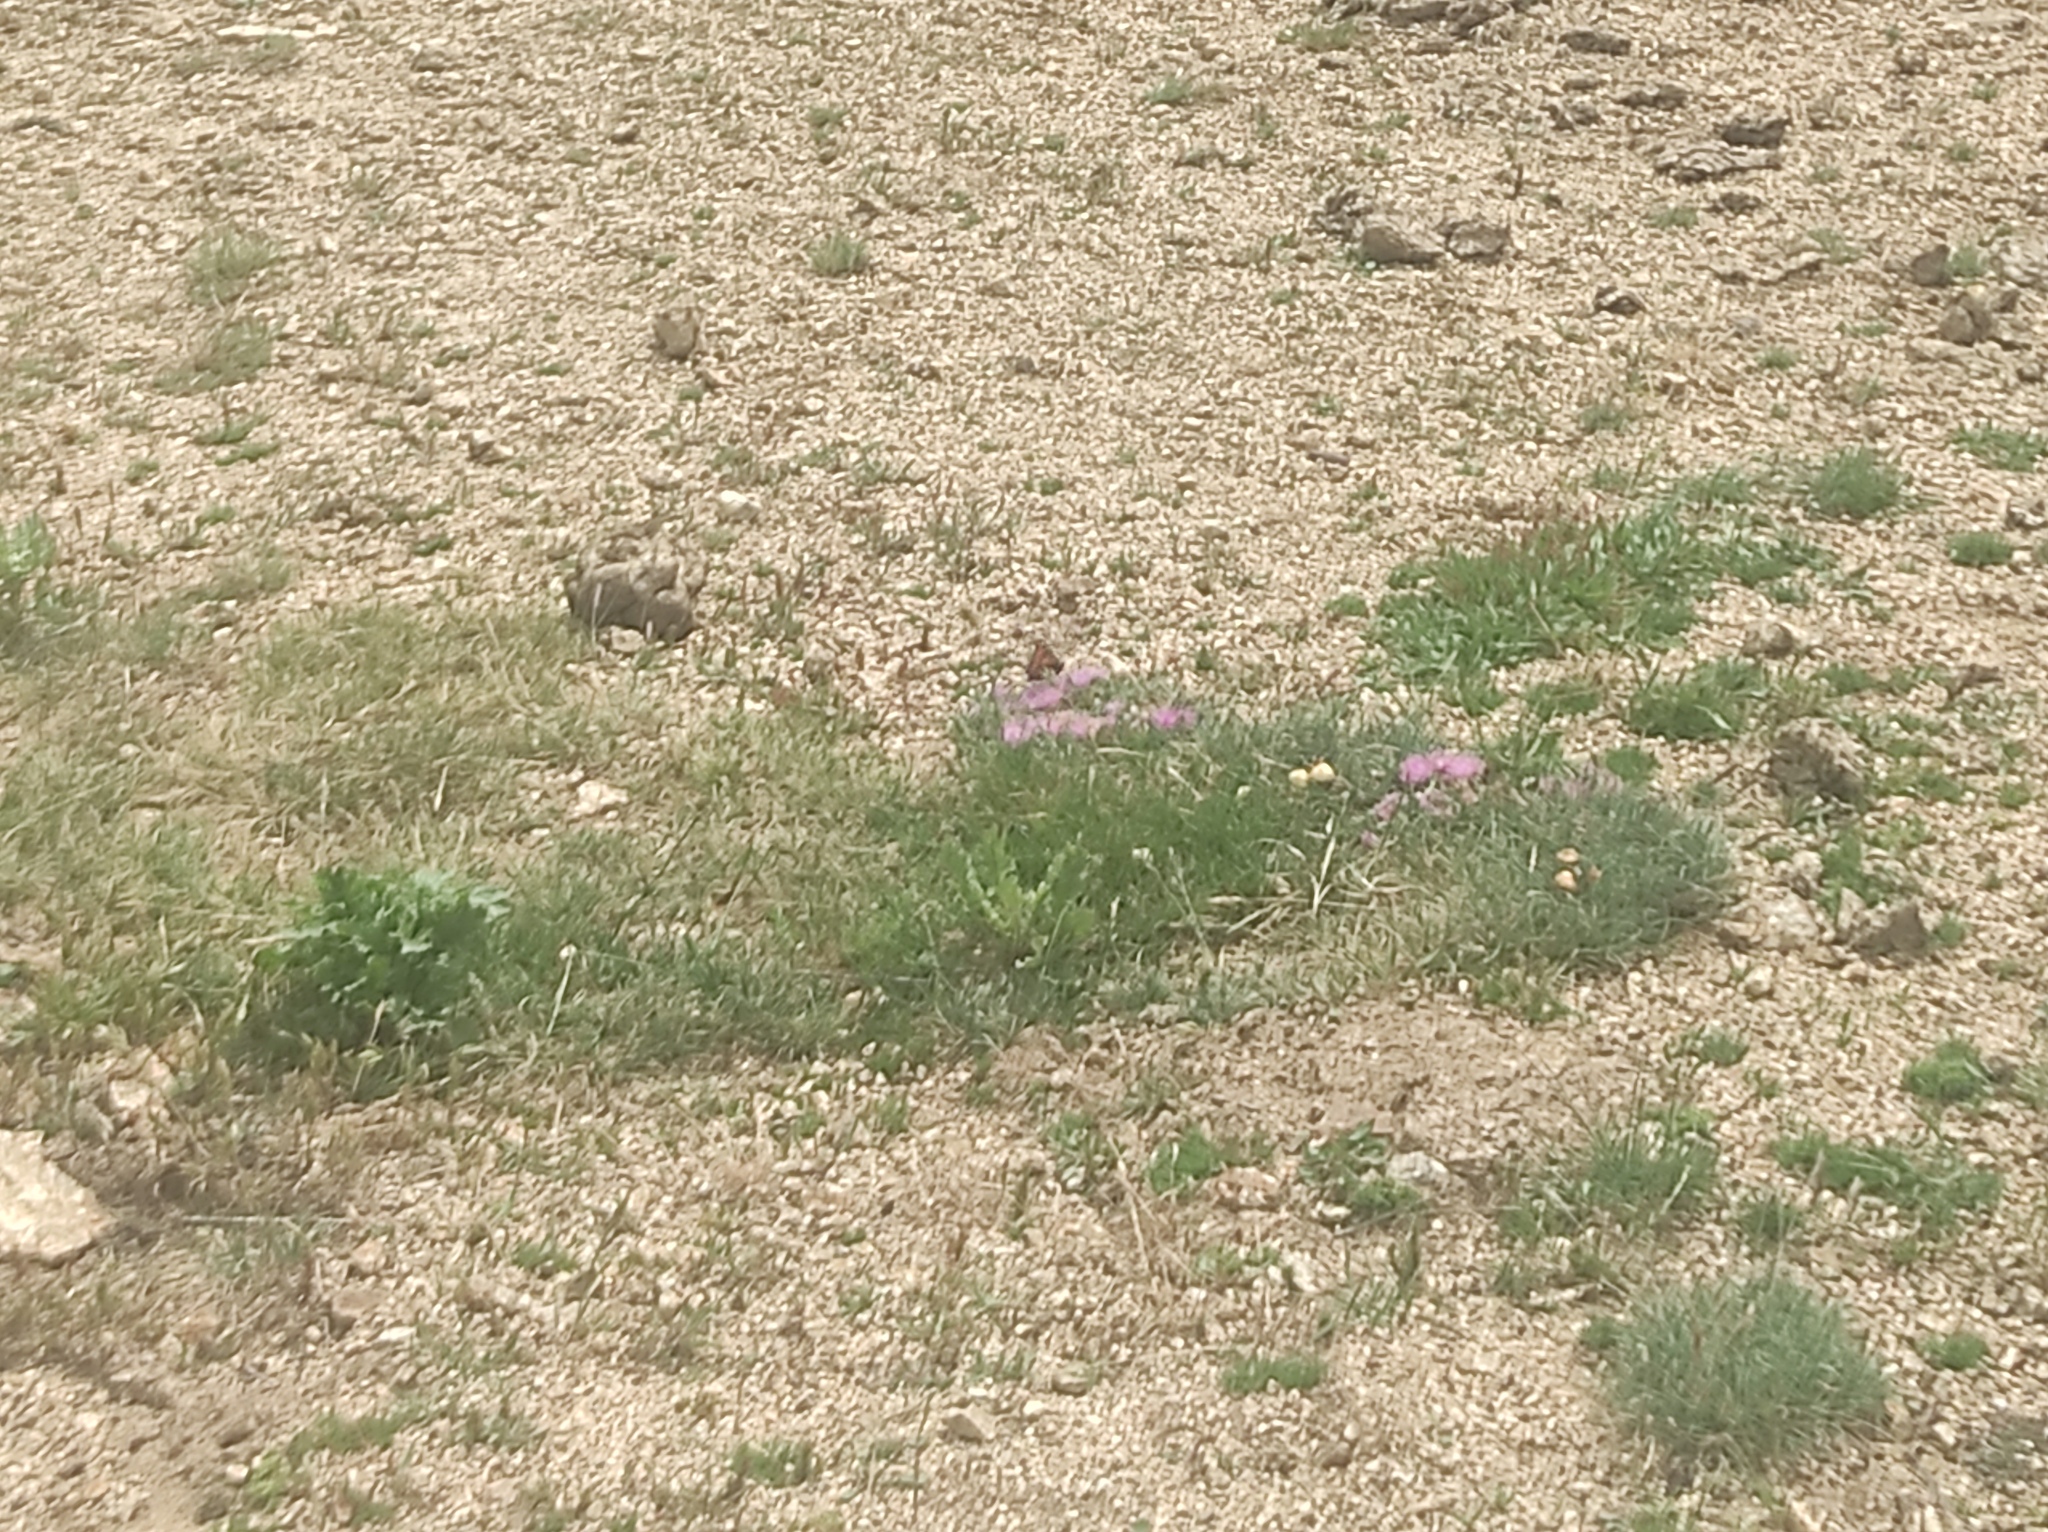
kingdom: Animalia
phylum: Arthropoda
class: Insecta
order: Lepidoptera
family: Nymphalidae
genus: Aglais
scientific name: Aglais urticae
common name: Small tortoiseshell
